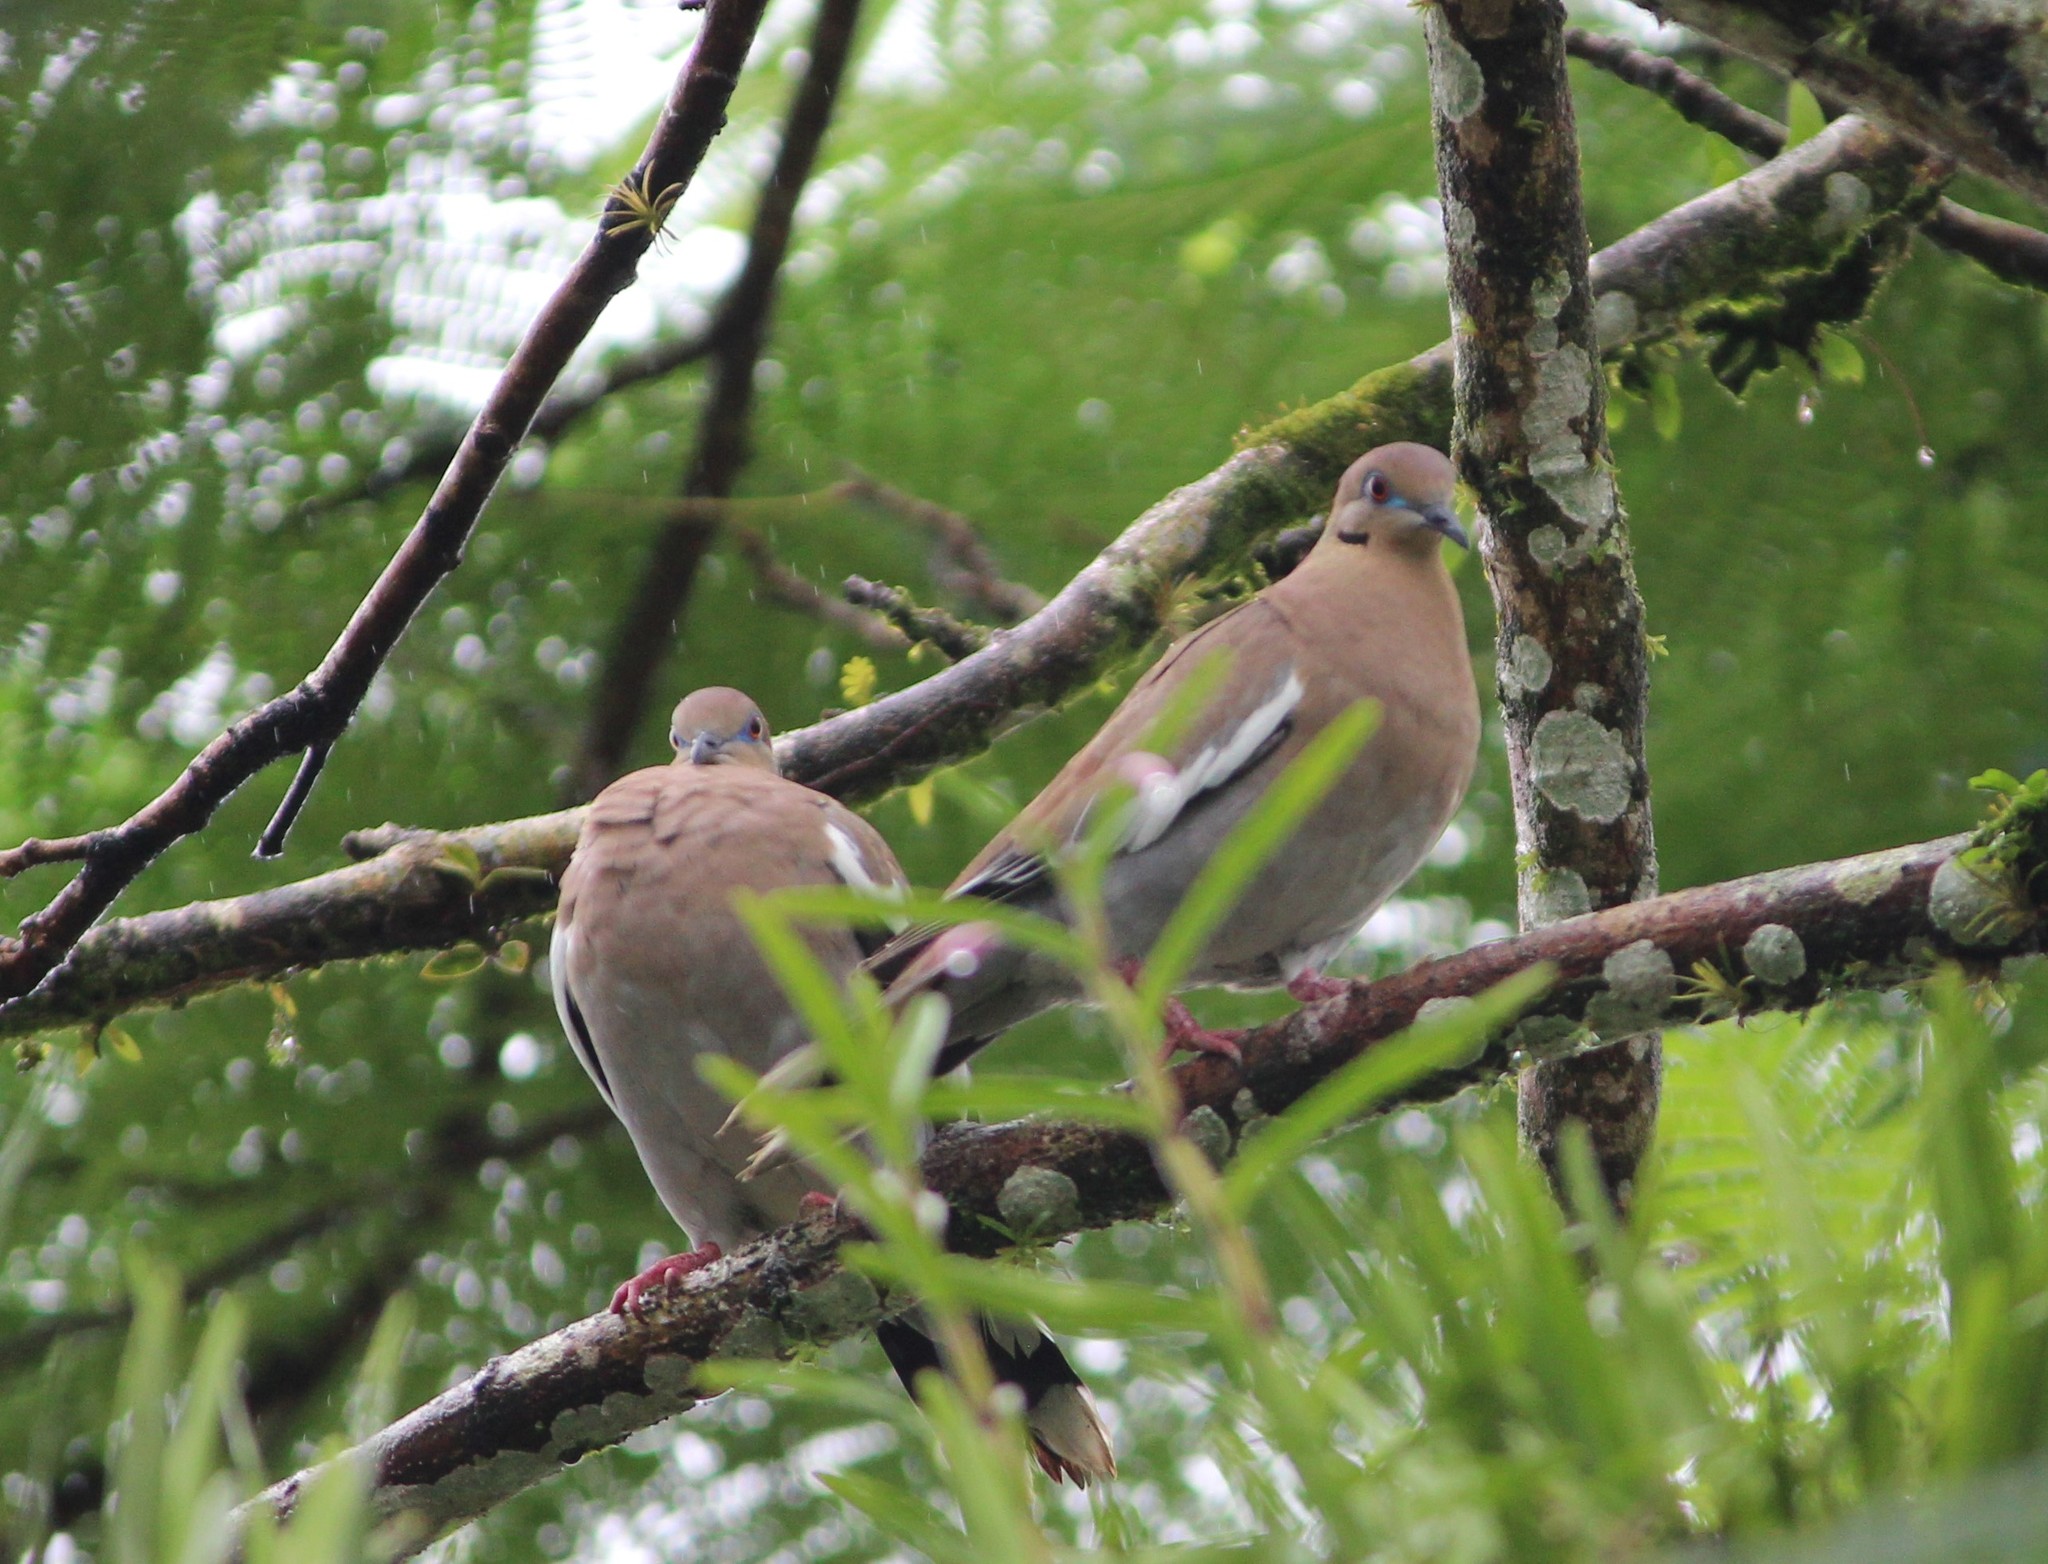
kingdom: Animalia
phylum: Chordata
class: Aves
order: Columbiformes
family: Columbidae
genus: Zenaida
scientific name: Zenaida asiatica
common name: White-winged dove
